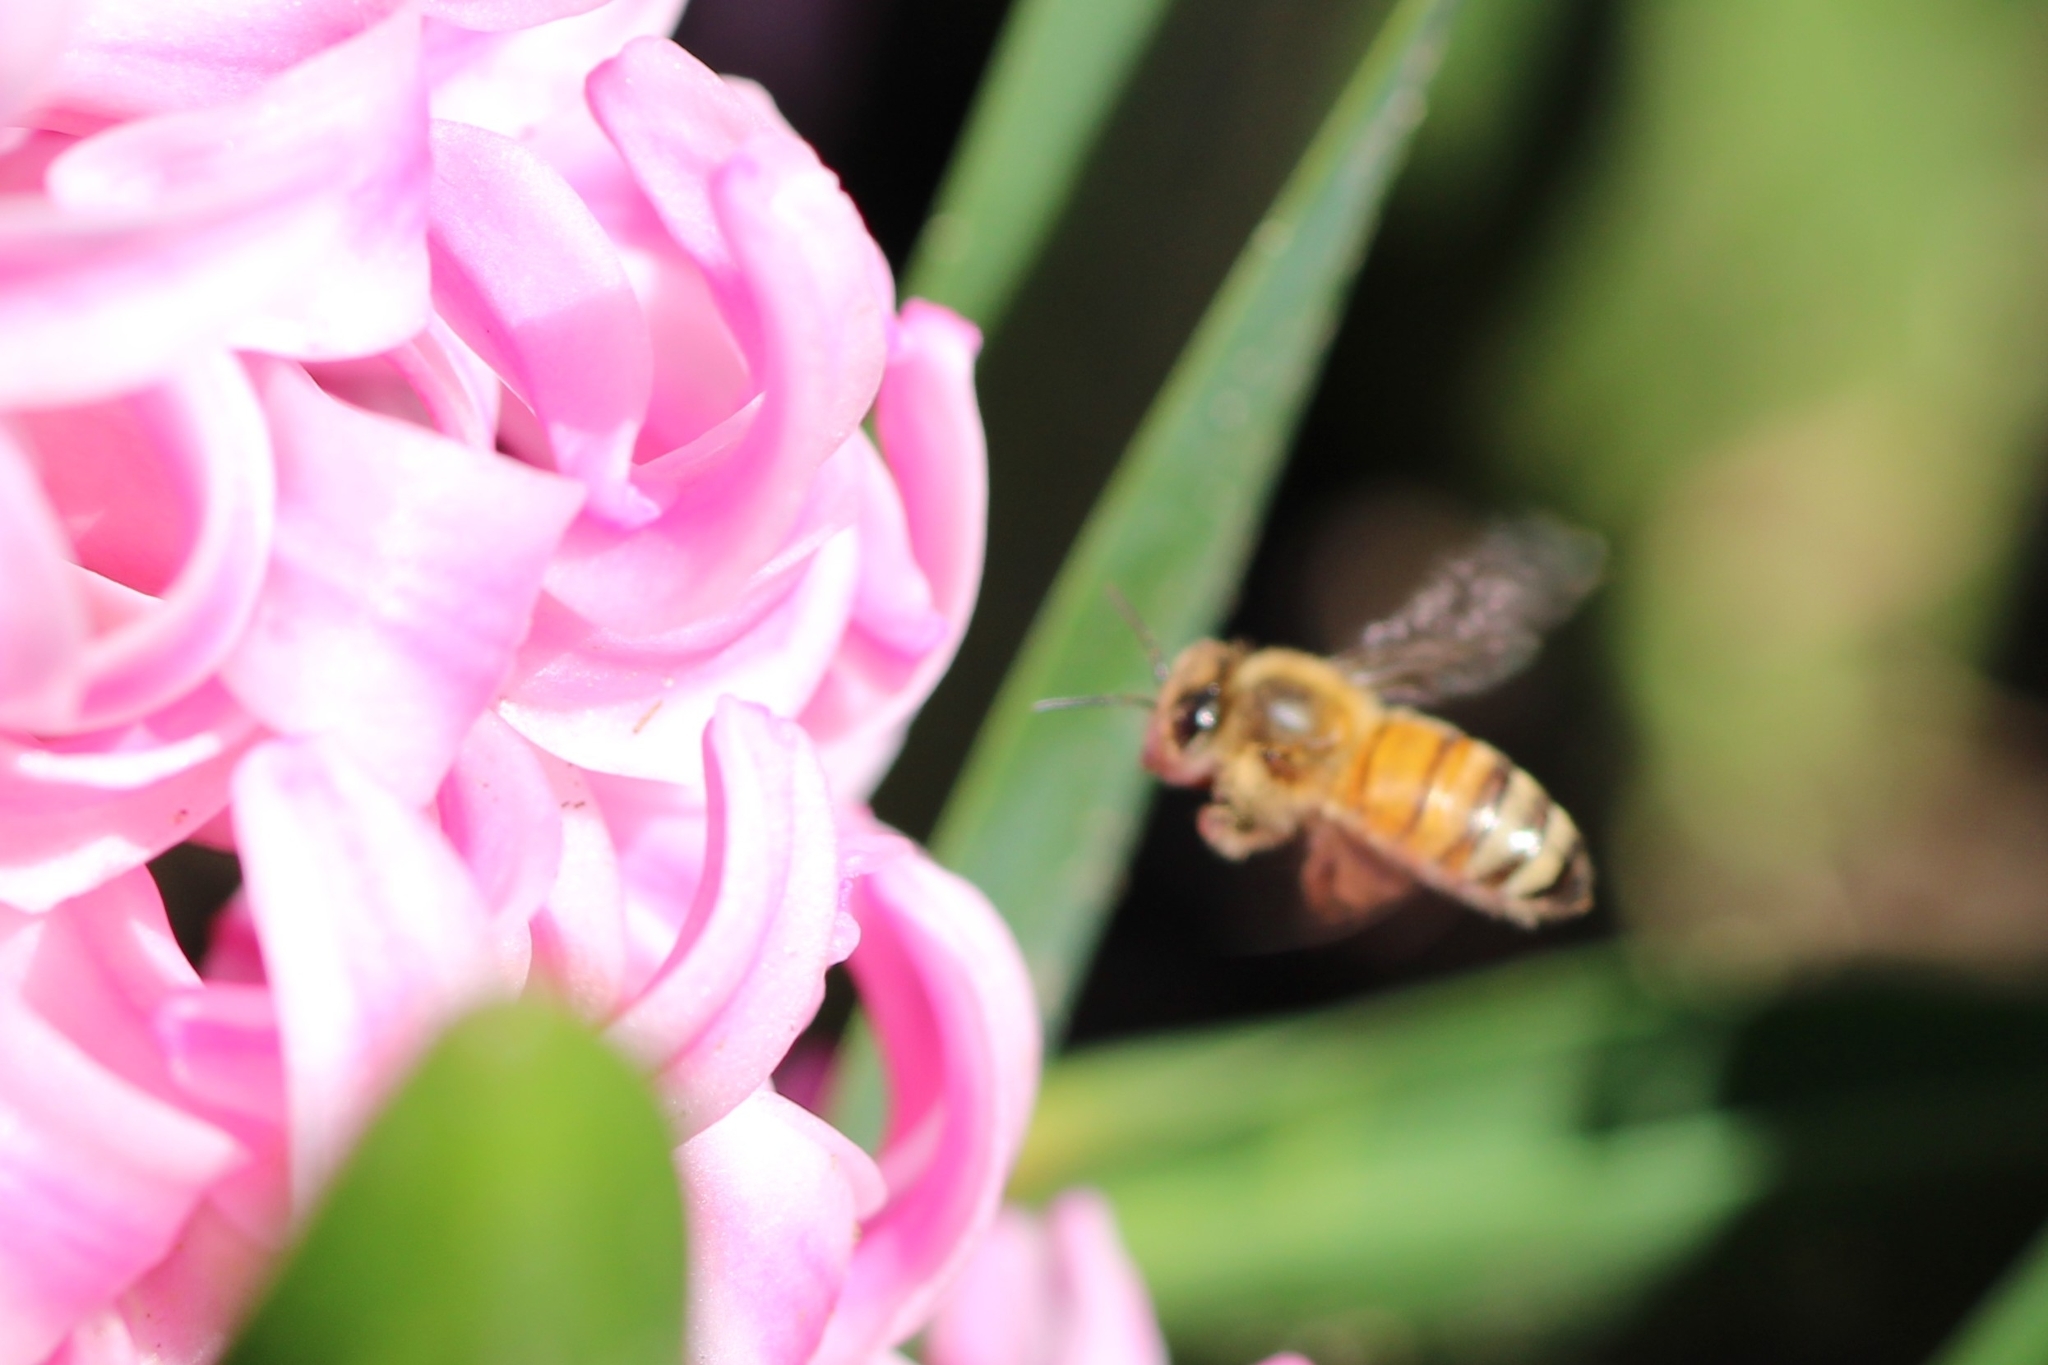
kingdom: Animalia
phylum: Arthropoda
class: Insecta
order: Hymenoptera
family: Apidae
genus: Apis
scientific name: Apis mellifera
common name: Honey bee
